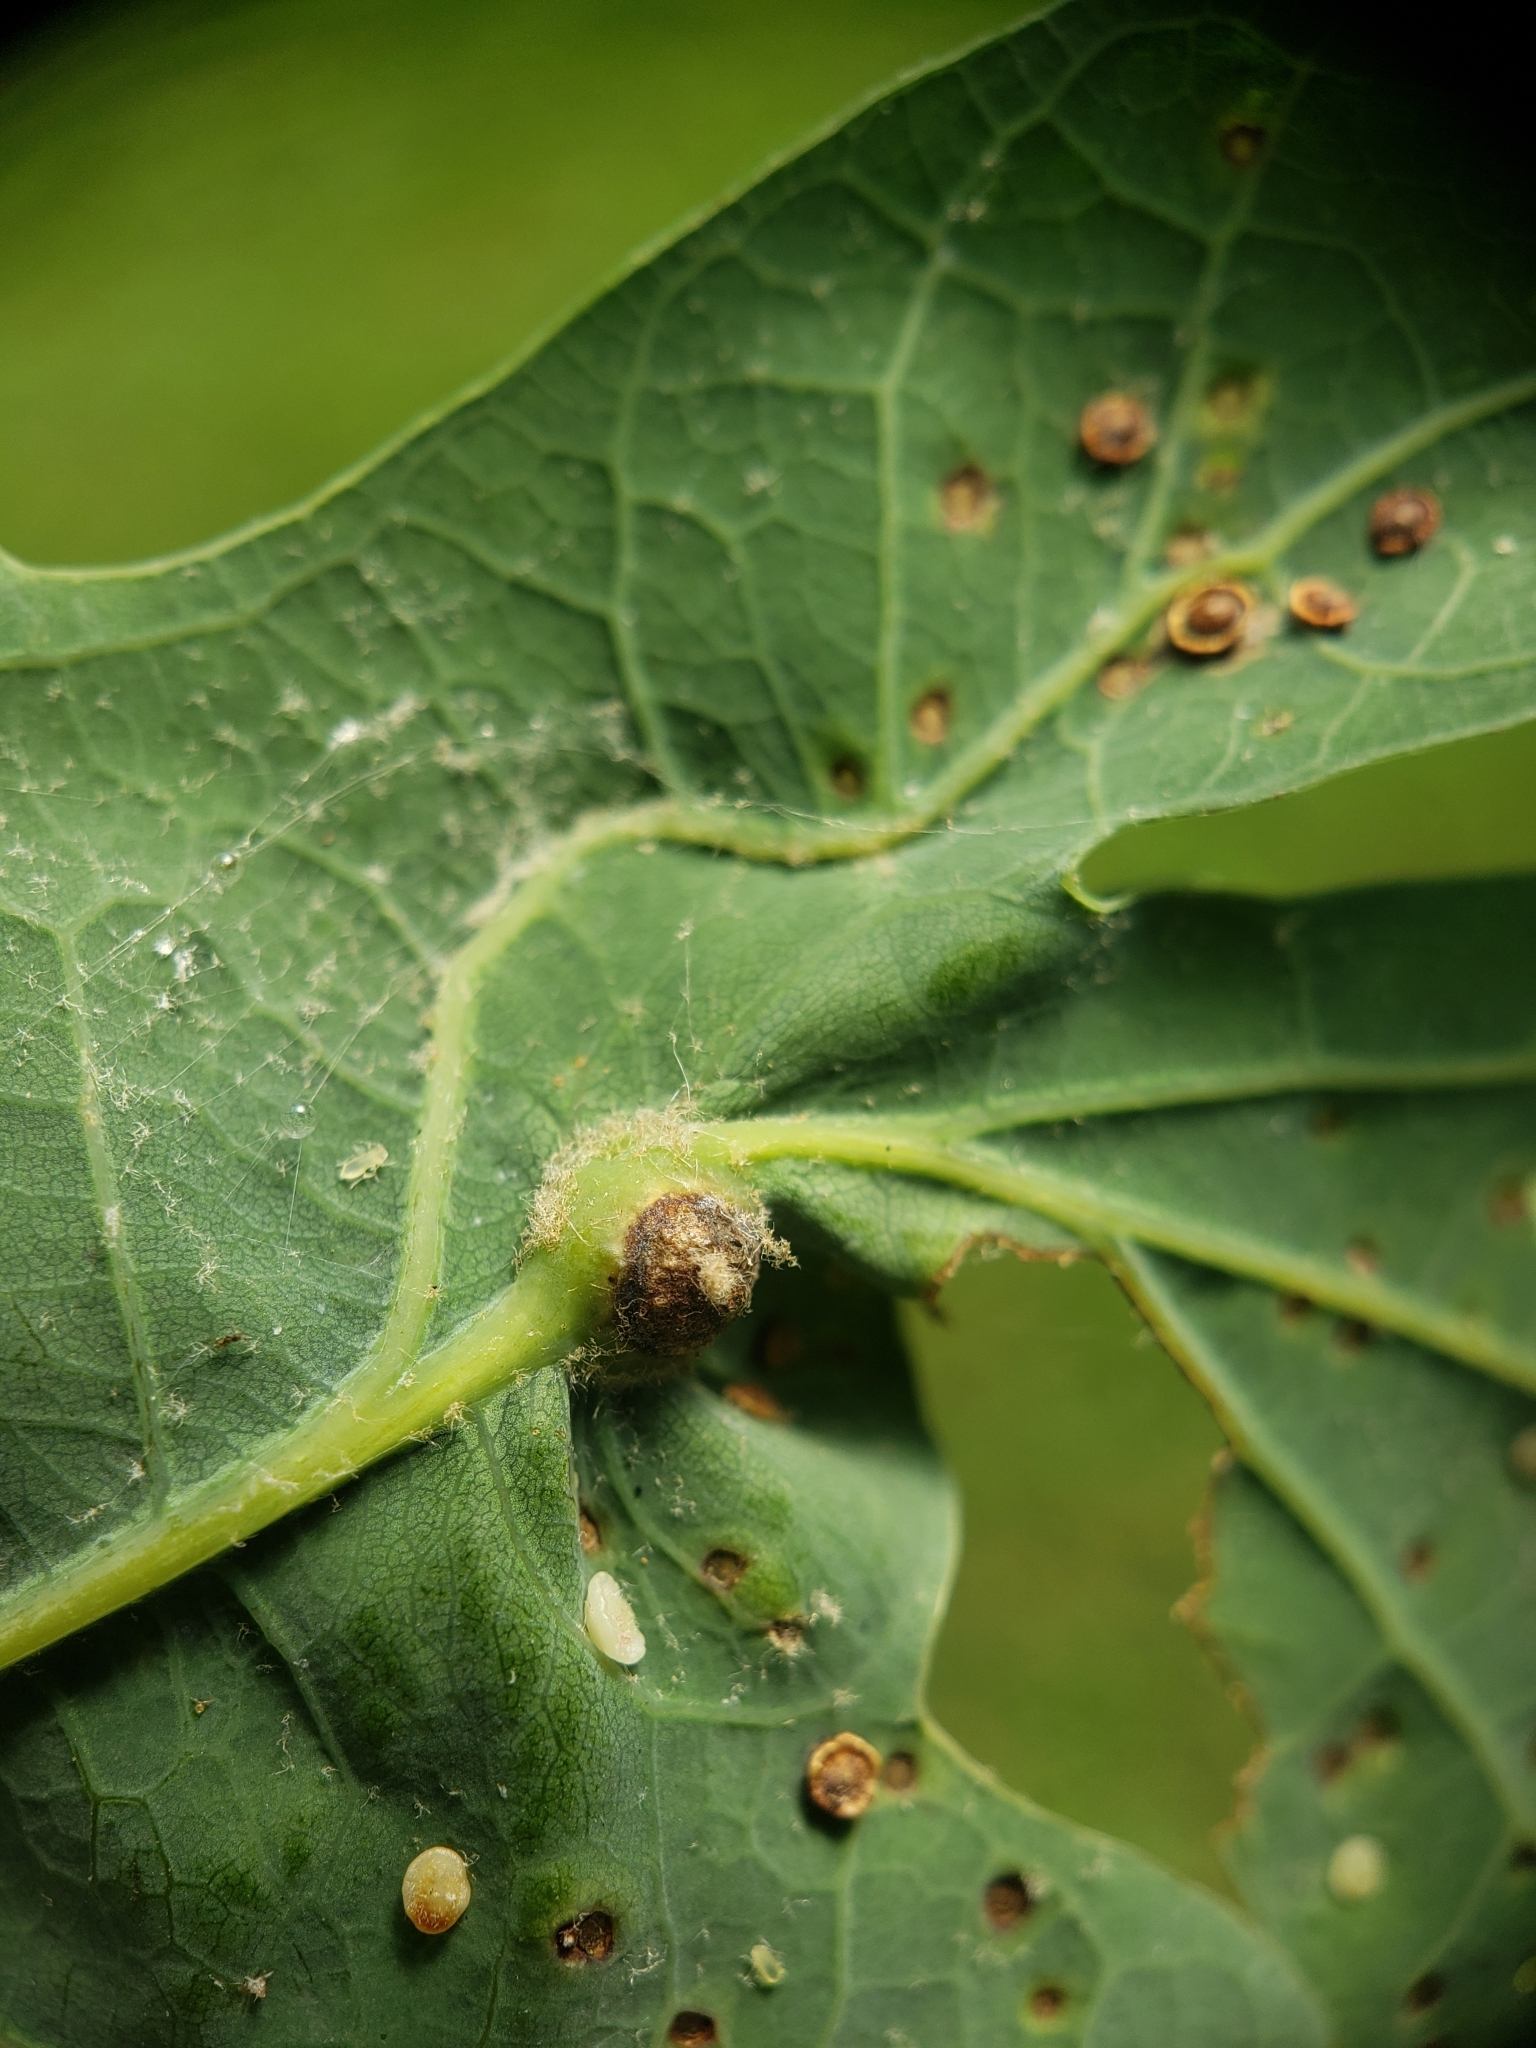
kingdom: Animalia
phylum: Arthropoda
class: Insecta
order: Hymenoptera
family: Cynipidae
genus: Andricus
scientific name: Andricus
